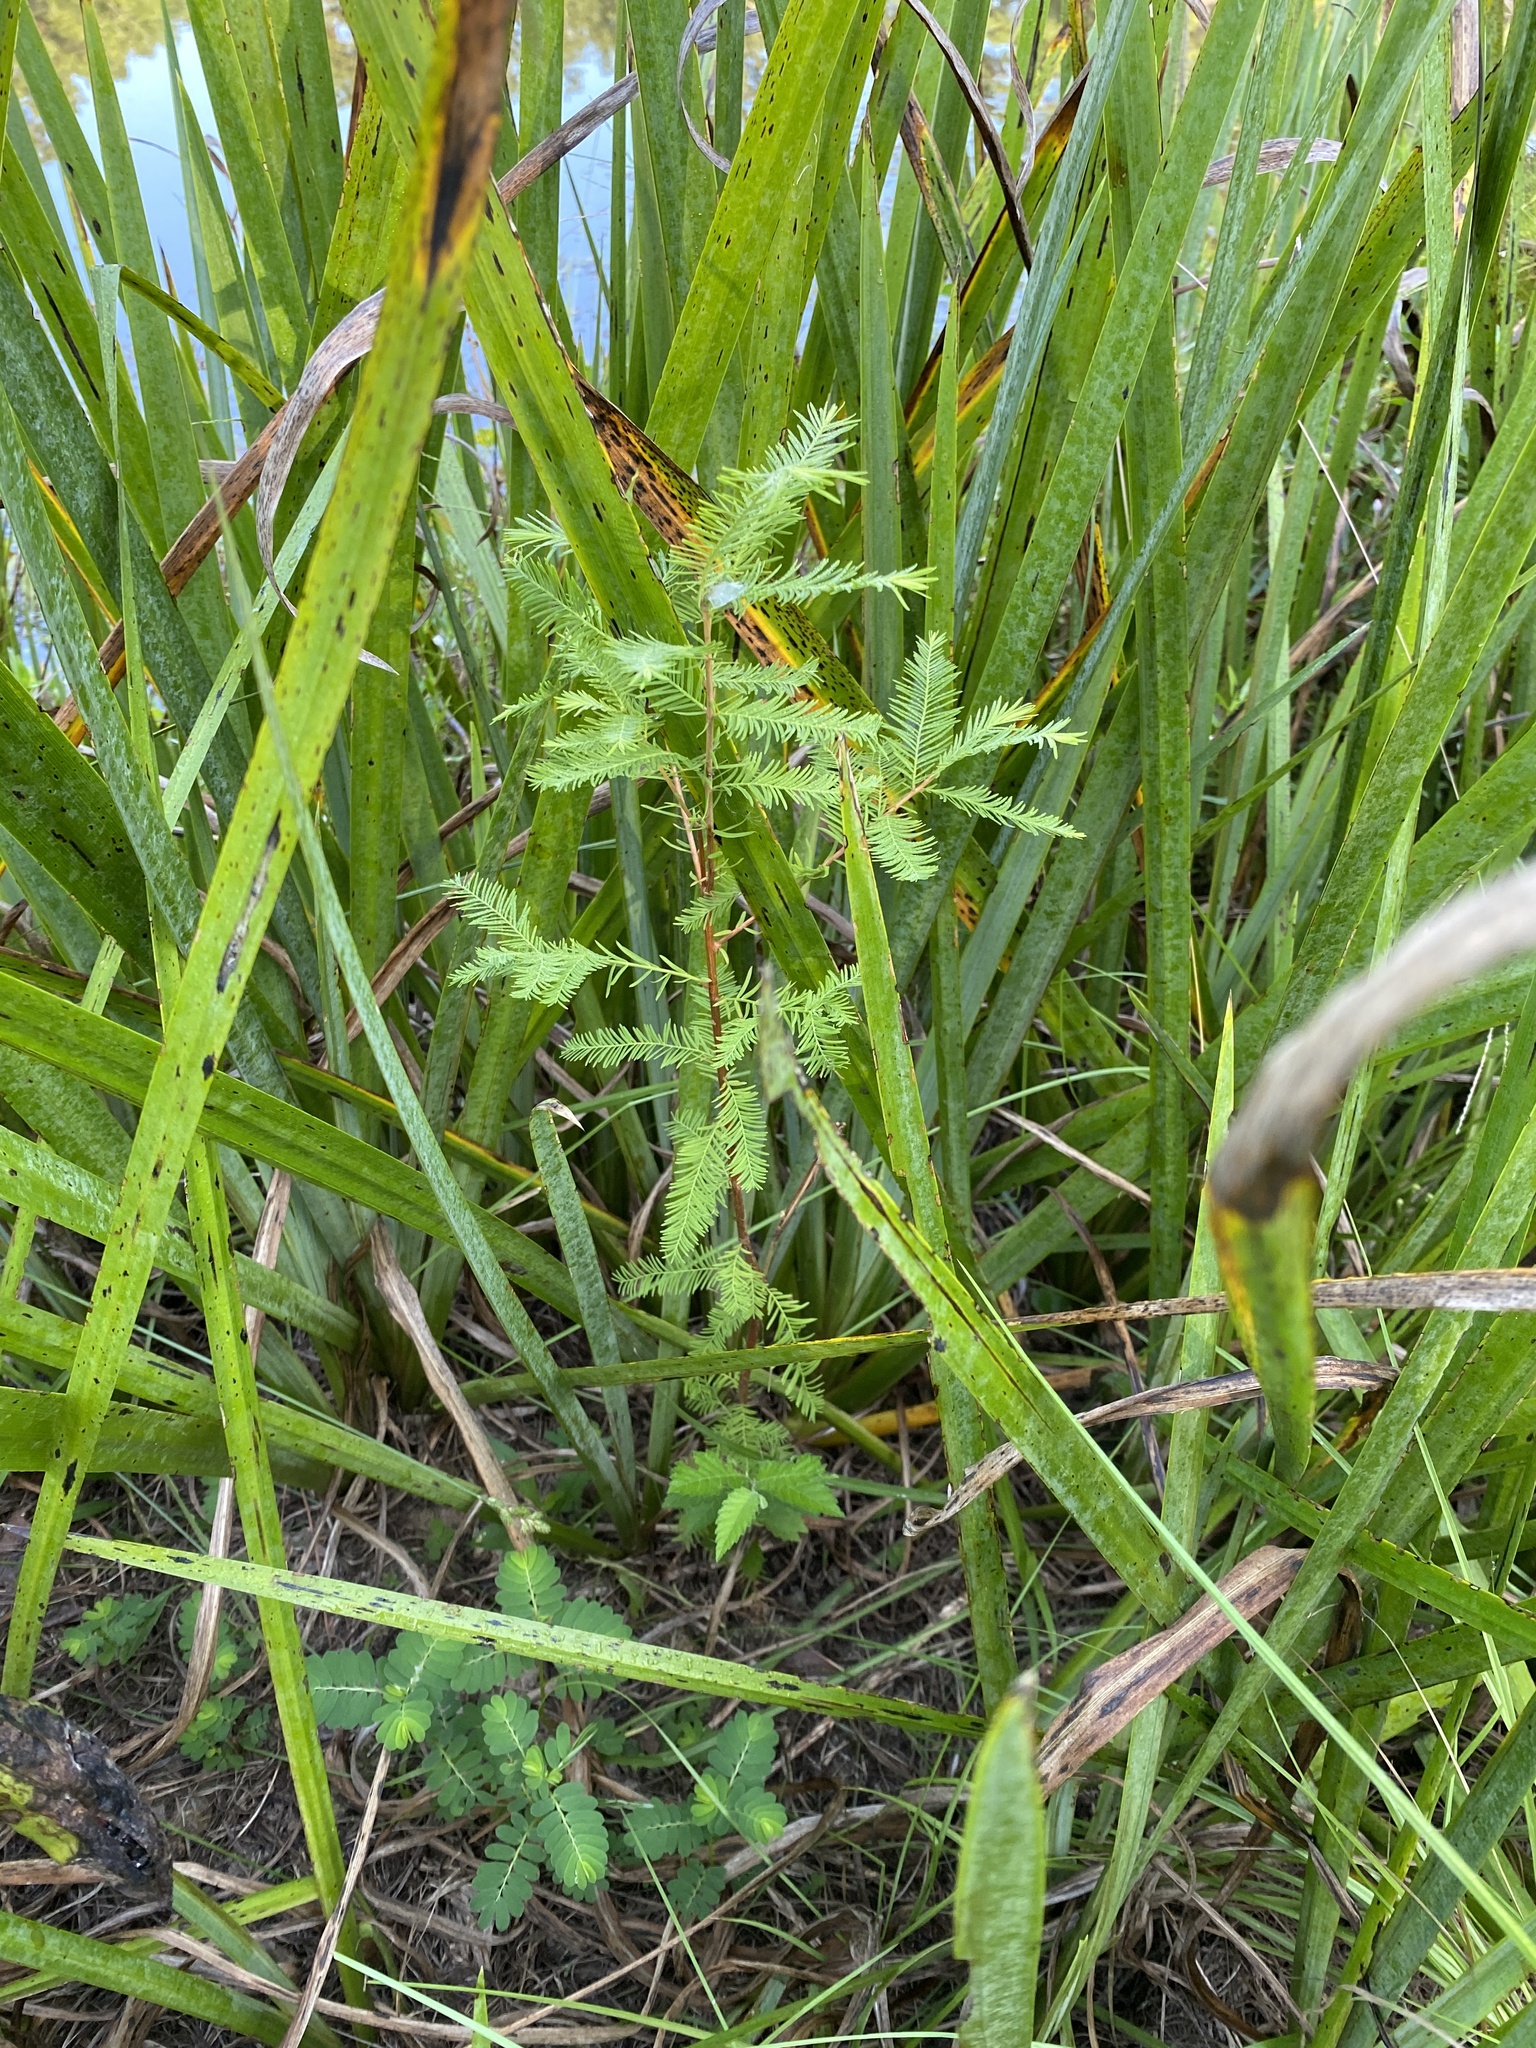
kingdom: Plantae
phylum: Tracheophyta
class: Pinopsida
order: Pinales
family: Cupressaceae
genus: Taxodium
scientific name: Taxodium distichum
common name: Bald cypress
